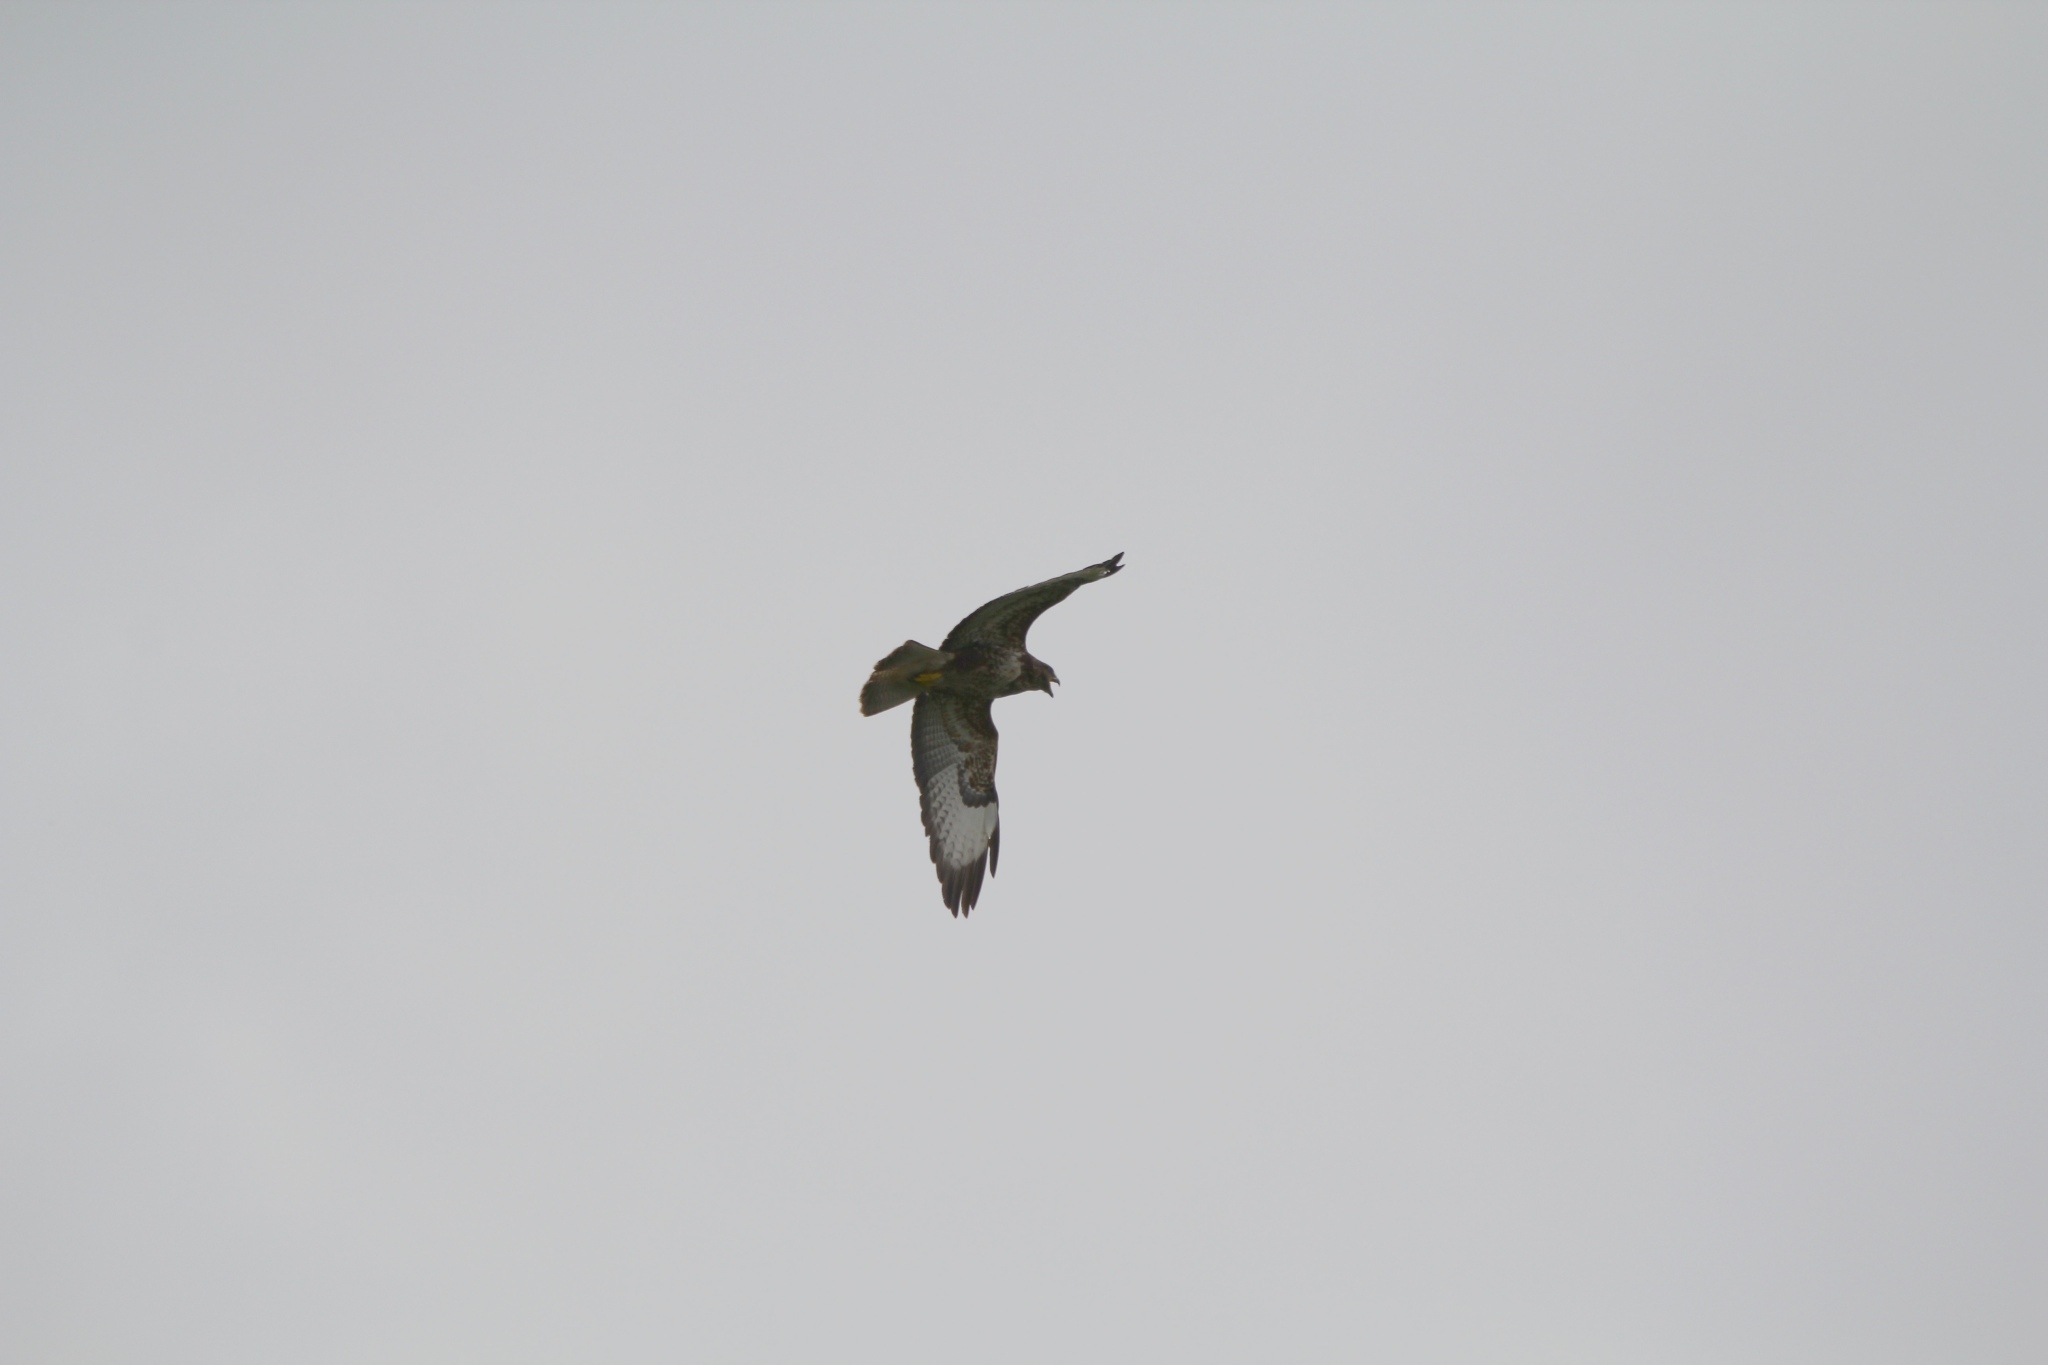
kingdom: Animalia
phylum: Chordata
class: Aves
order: Accipitriformes
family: Accipitridae
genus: Buteo
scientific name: Buteo buteo
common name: Common buzzard
